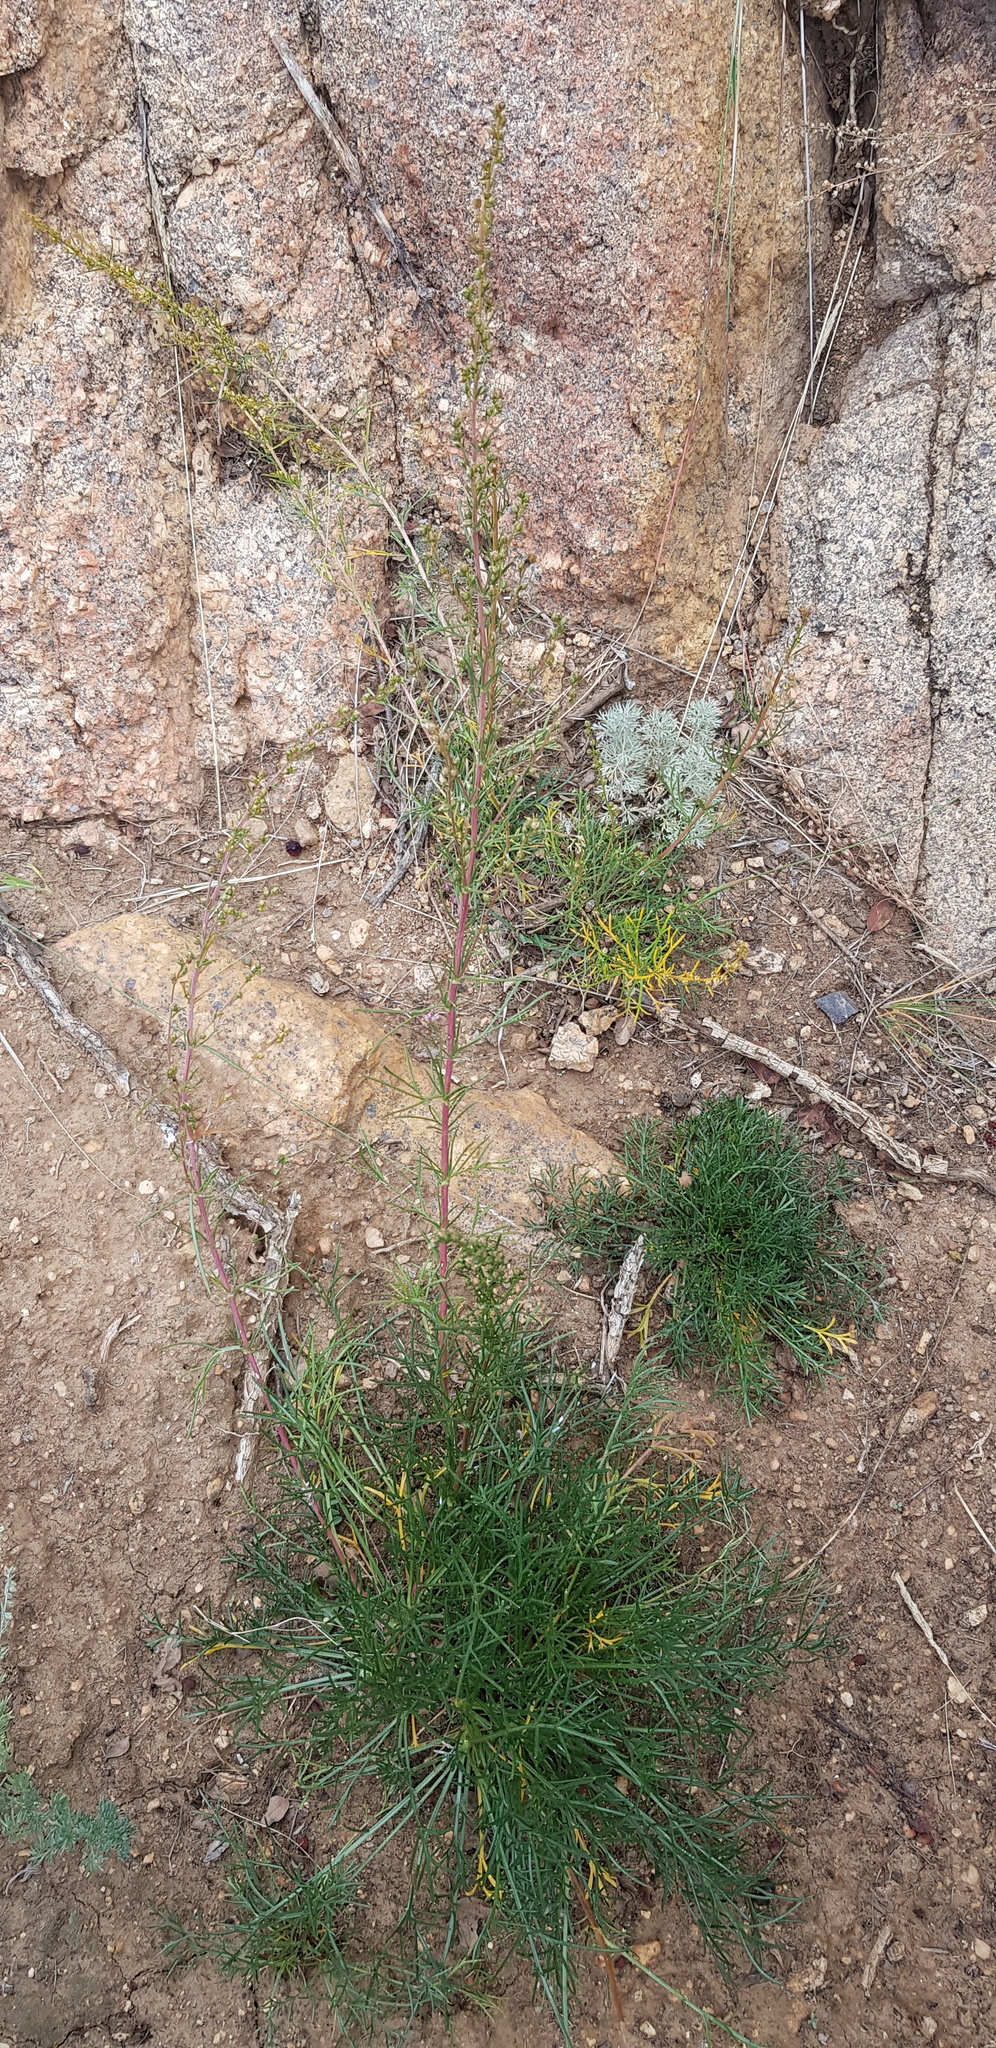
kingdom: Plantae
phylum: Tracheophyta
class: Magnoliopsida
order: Asterales
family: Asteraceae
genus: Artemisia
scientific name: Artemisia pubescens
